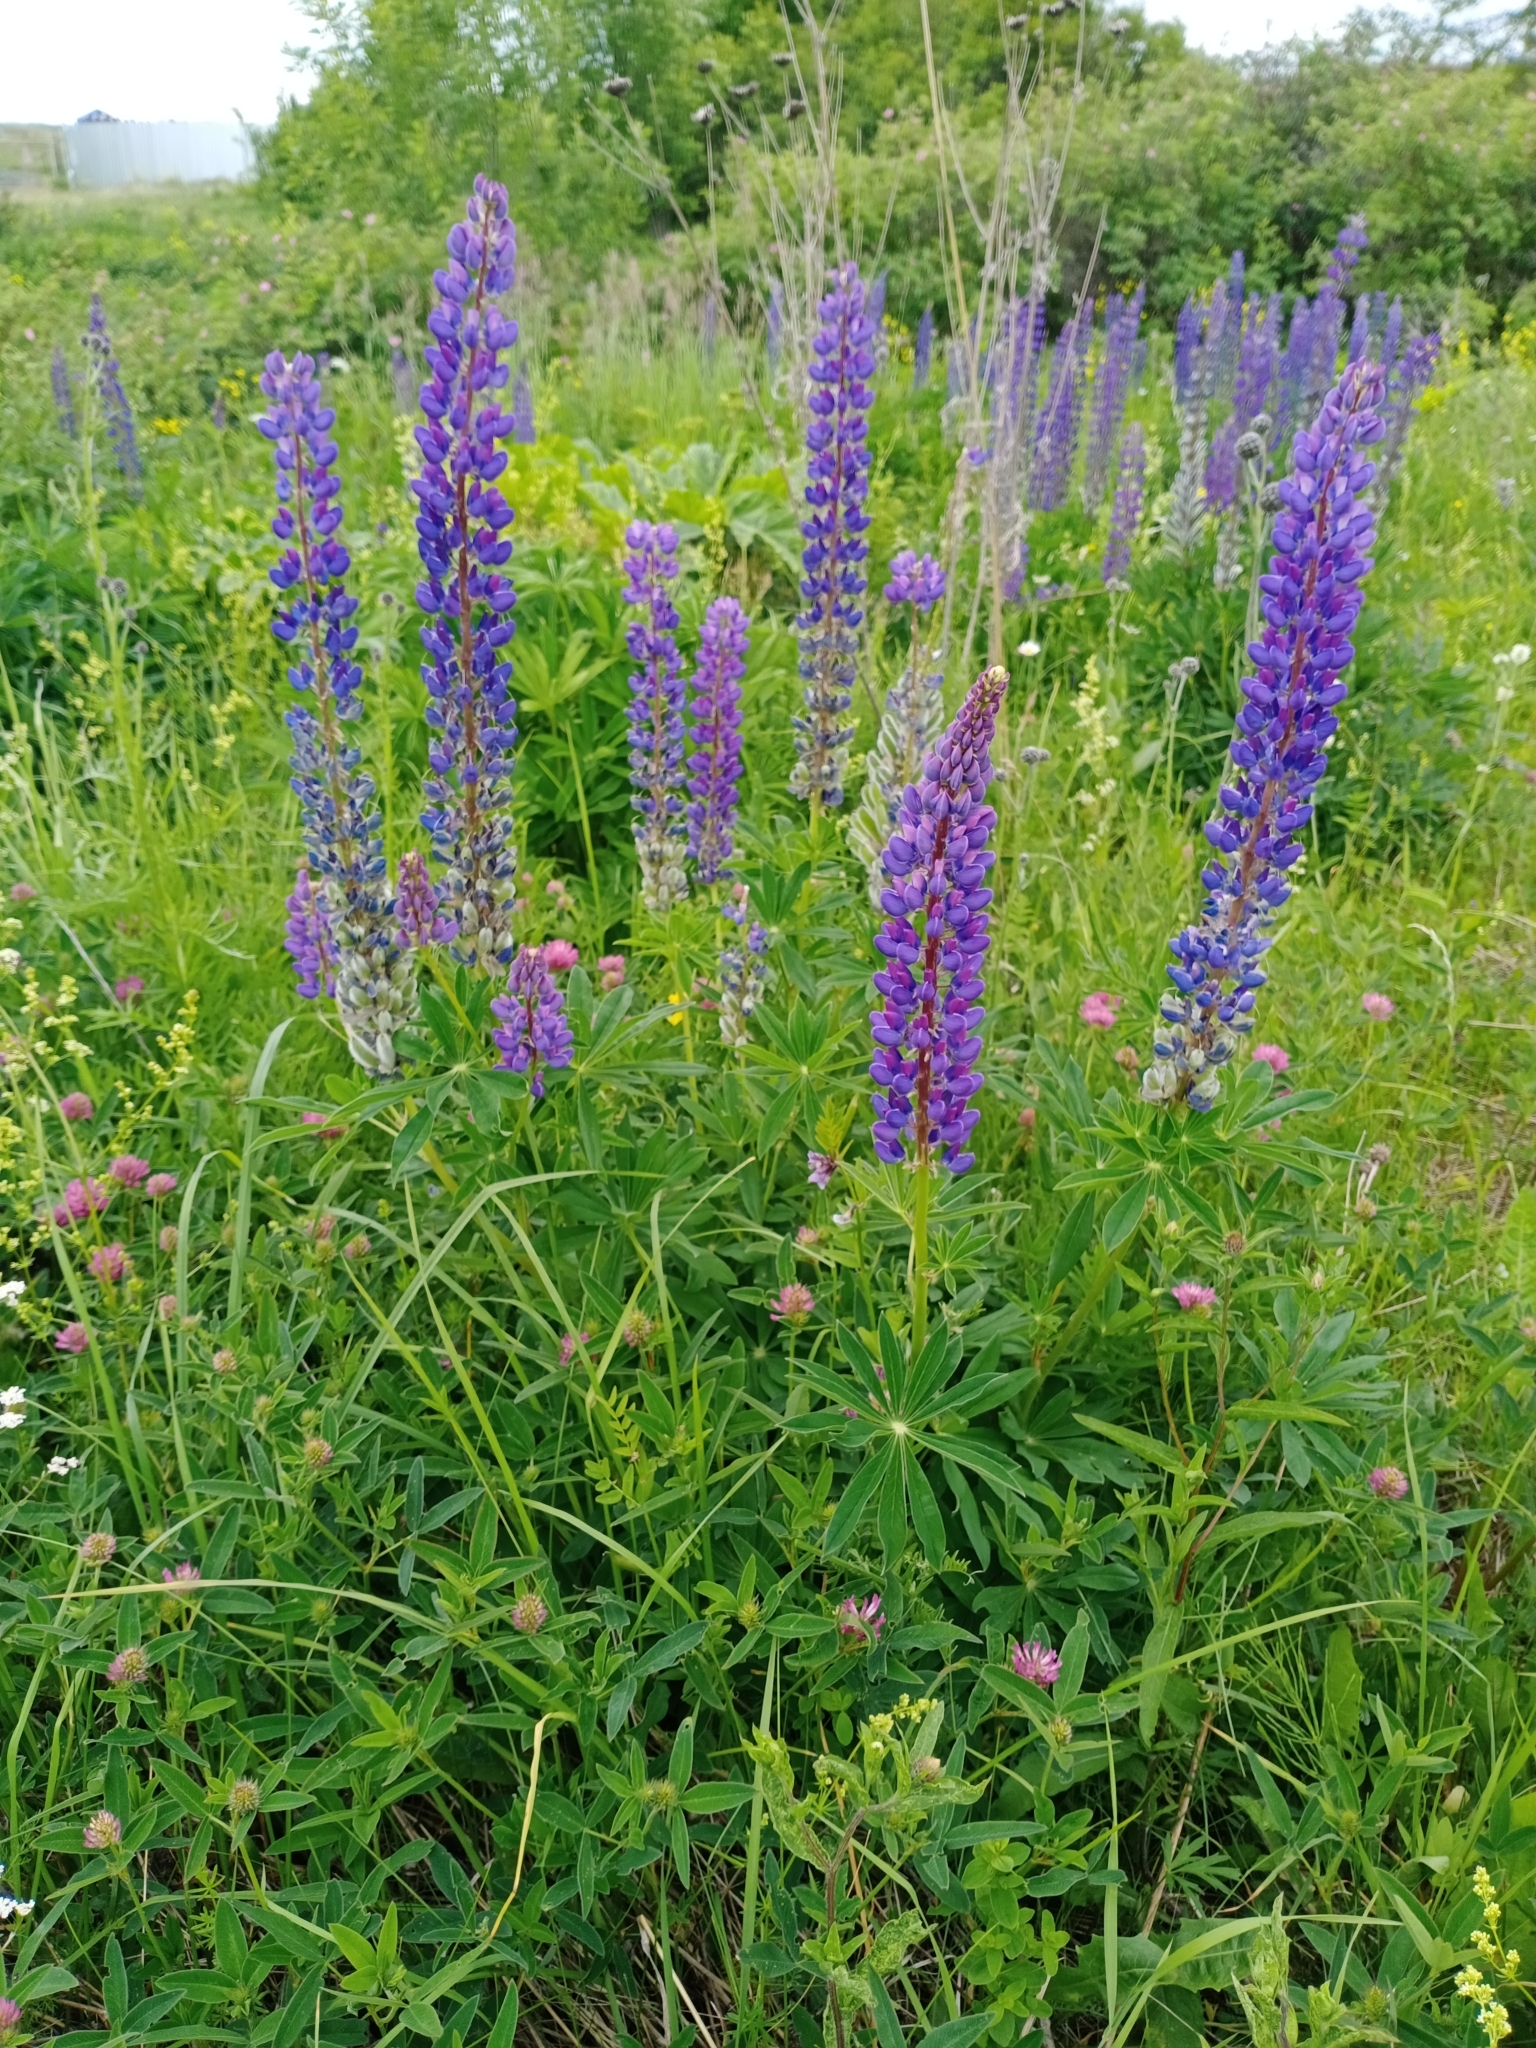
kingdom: Plantae
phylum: Tracheophyta
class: Magnoliopsida
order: Fabales
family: Fabaceae
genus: Lupinus
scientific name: Lupinus polyphyllus
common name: Garden lupin
